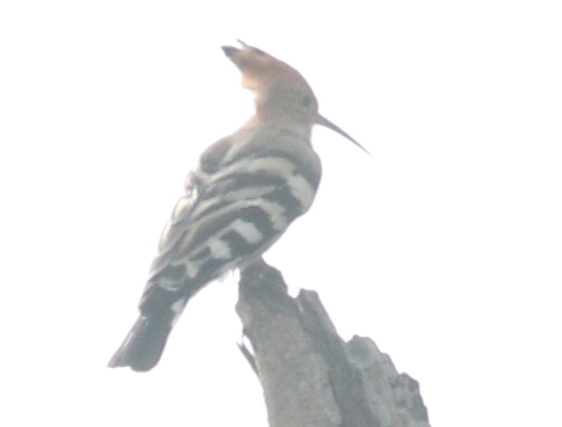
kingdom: Animalia
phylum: Chordata
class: Aves
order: Bucerotiformes
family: Upupidae
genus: Upupa
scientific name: Upupa epops
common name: Eurasian hoopoe
